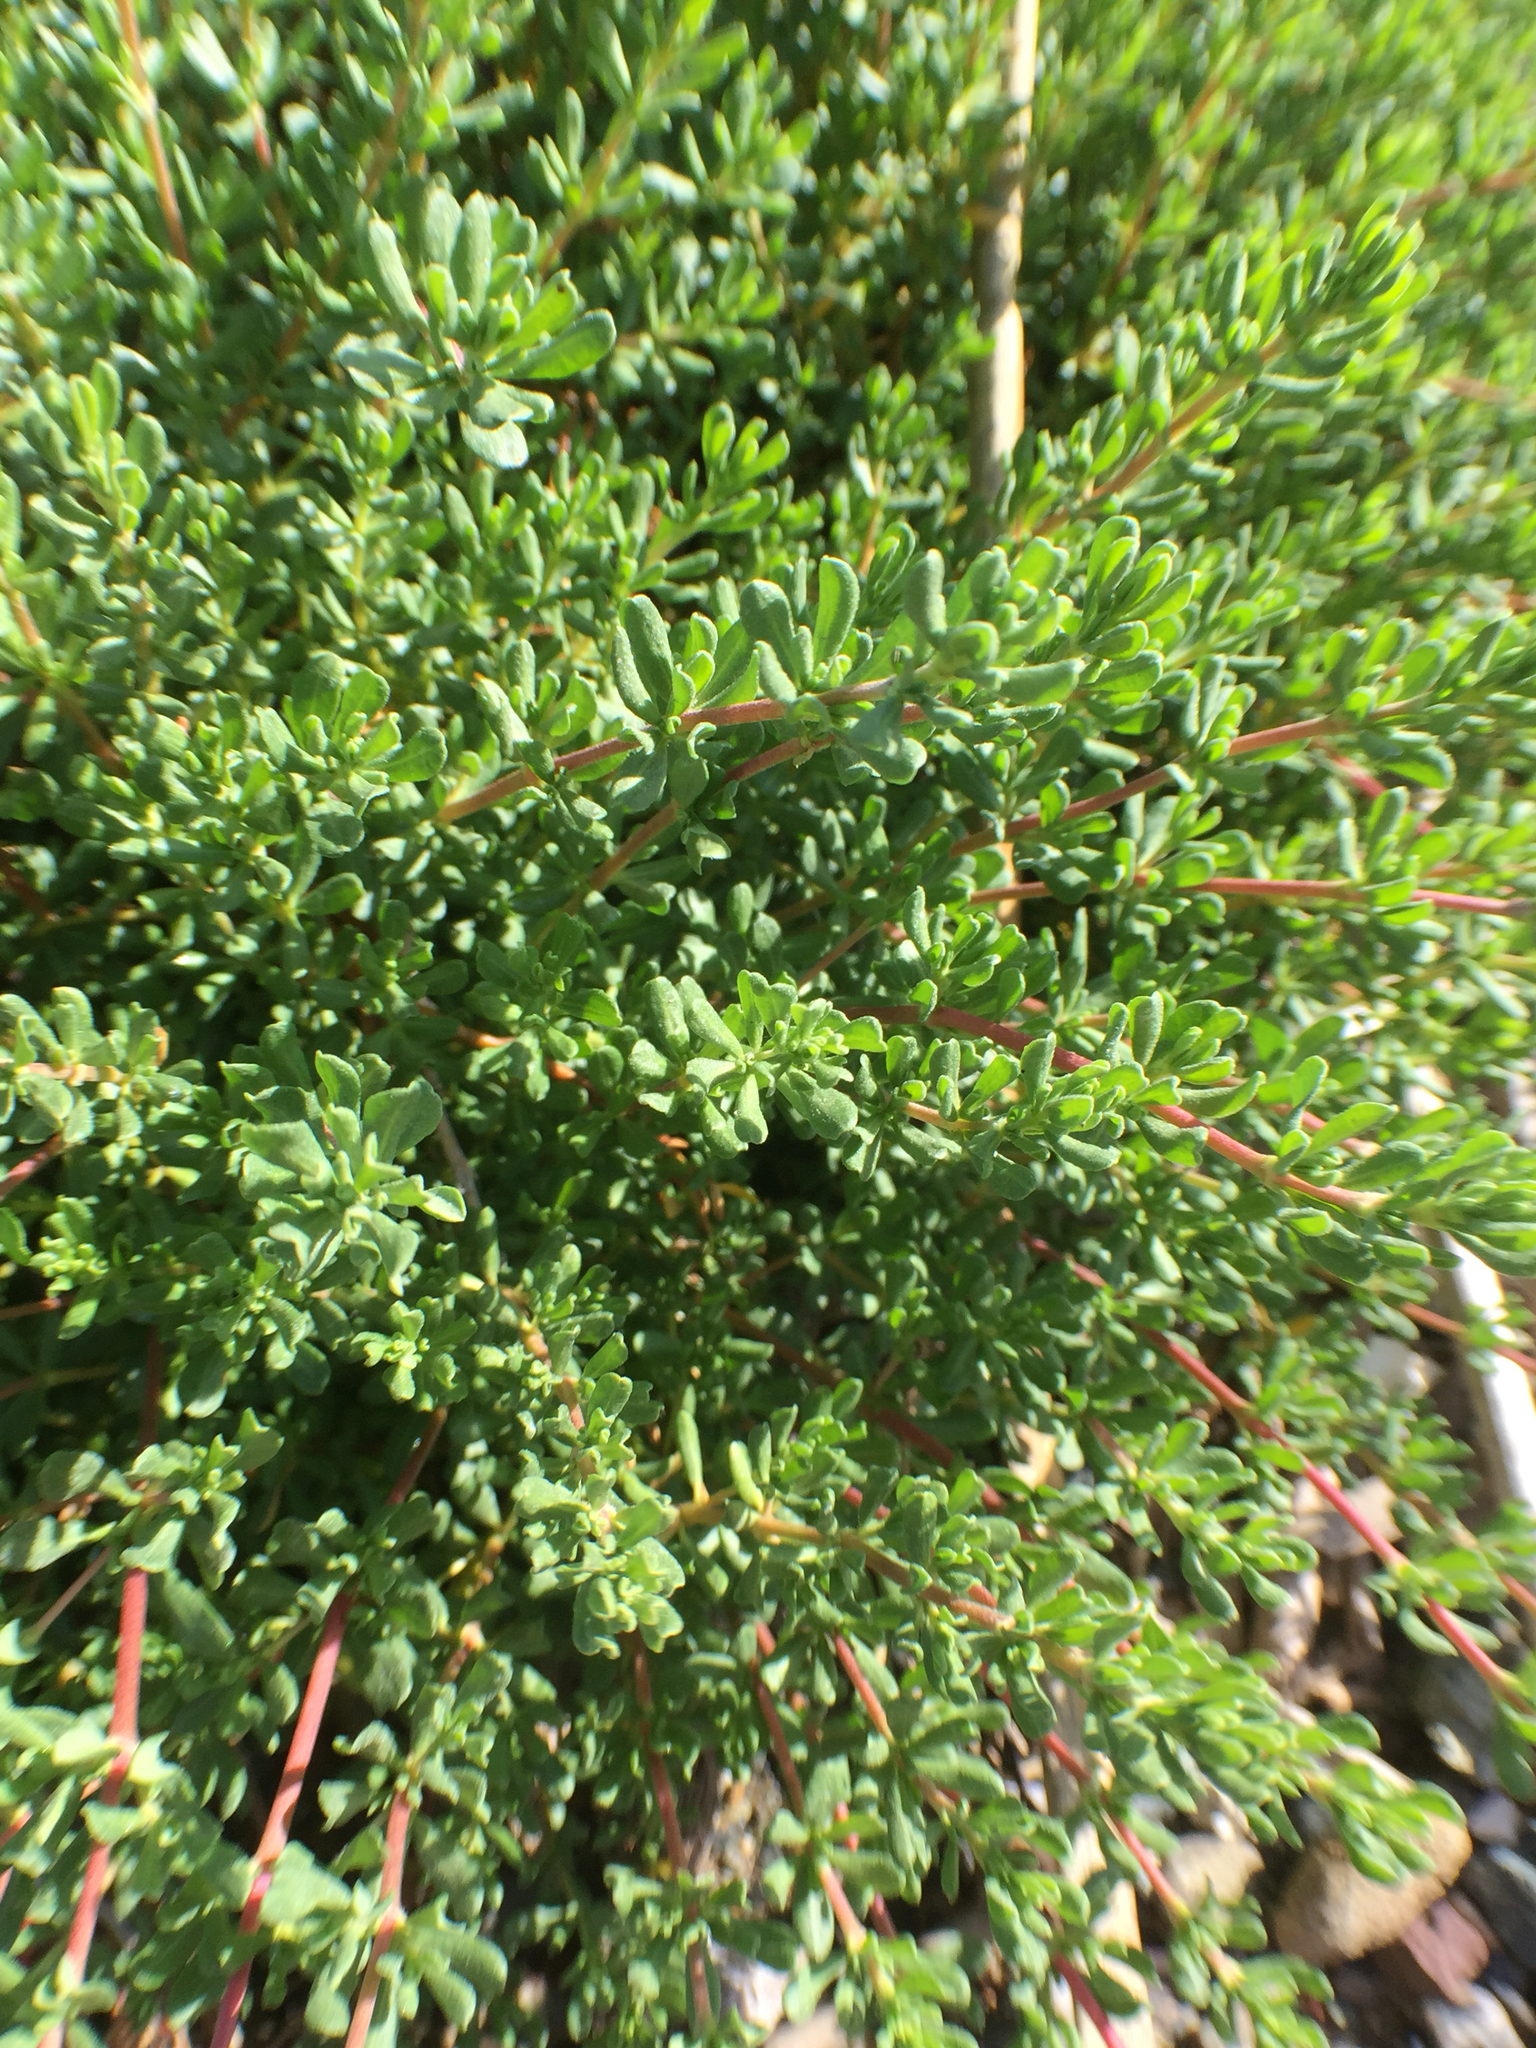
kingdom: Plantae
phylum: Tracheophyta
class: Magnoliopsida
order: Caryophyllales
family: Frankeniaceae
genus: Frankenia
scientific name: Frankenia salina
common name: Alkali seaheath
